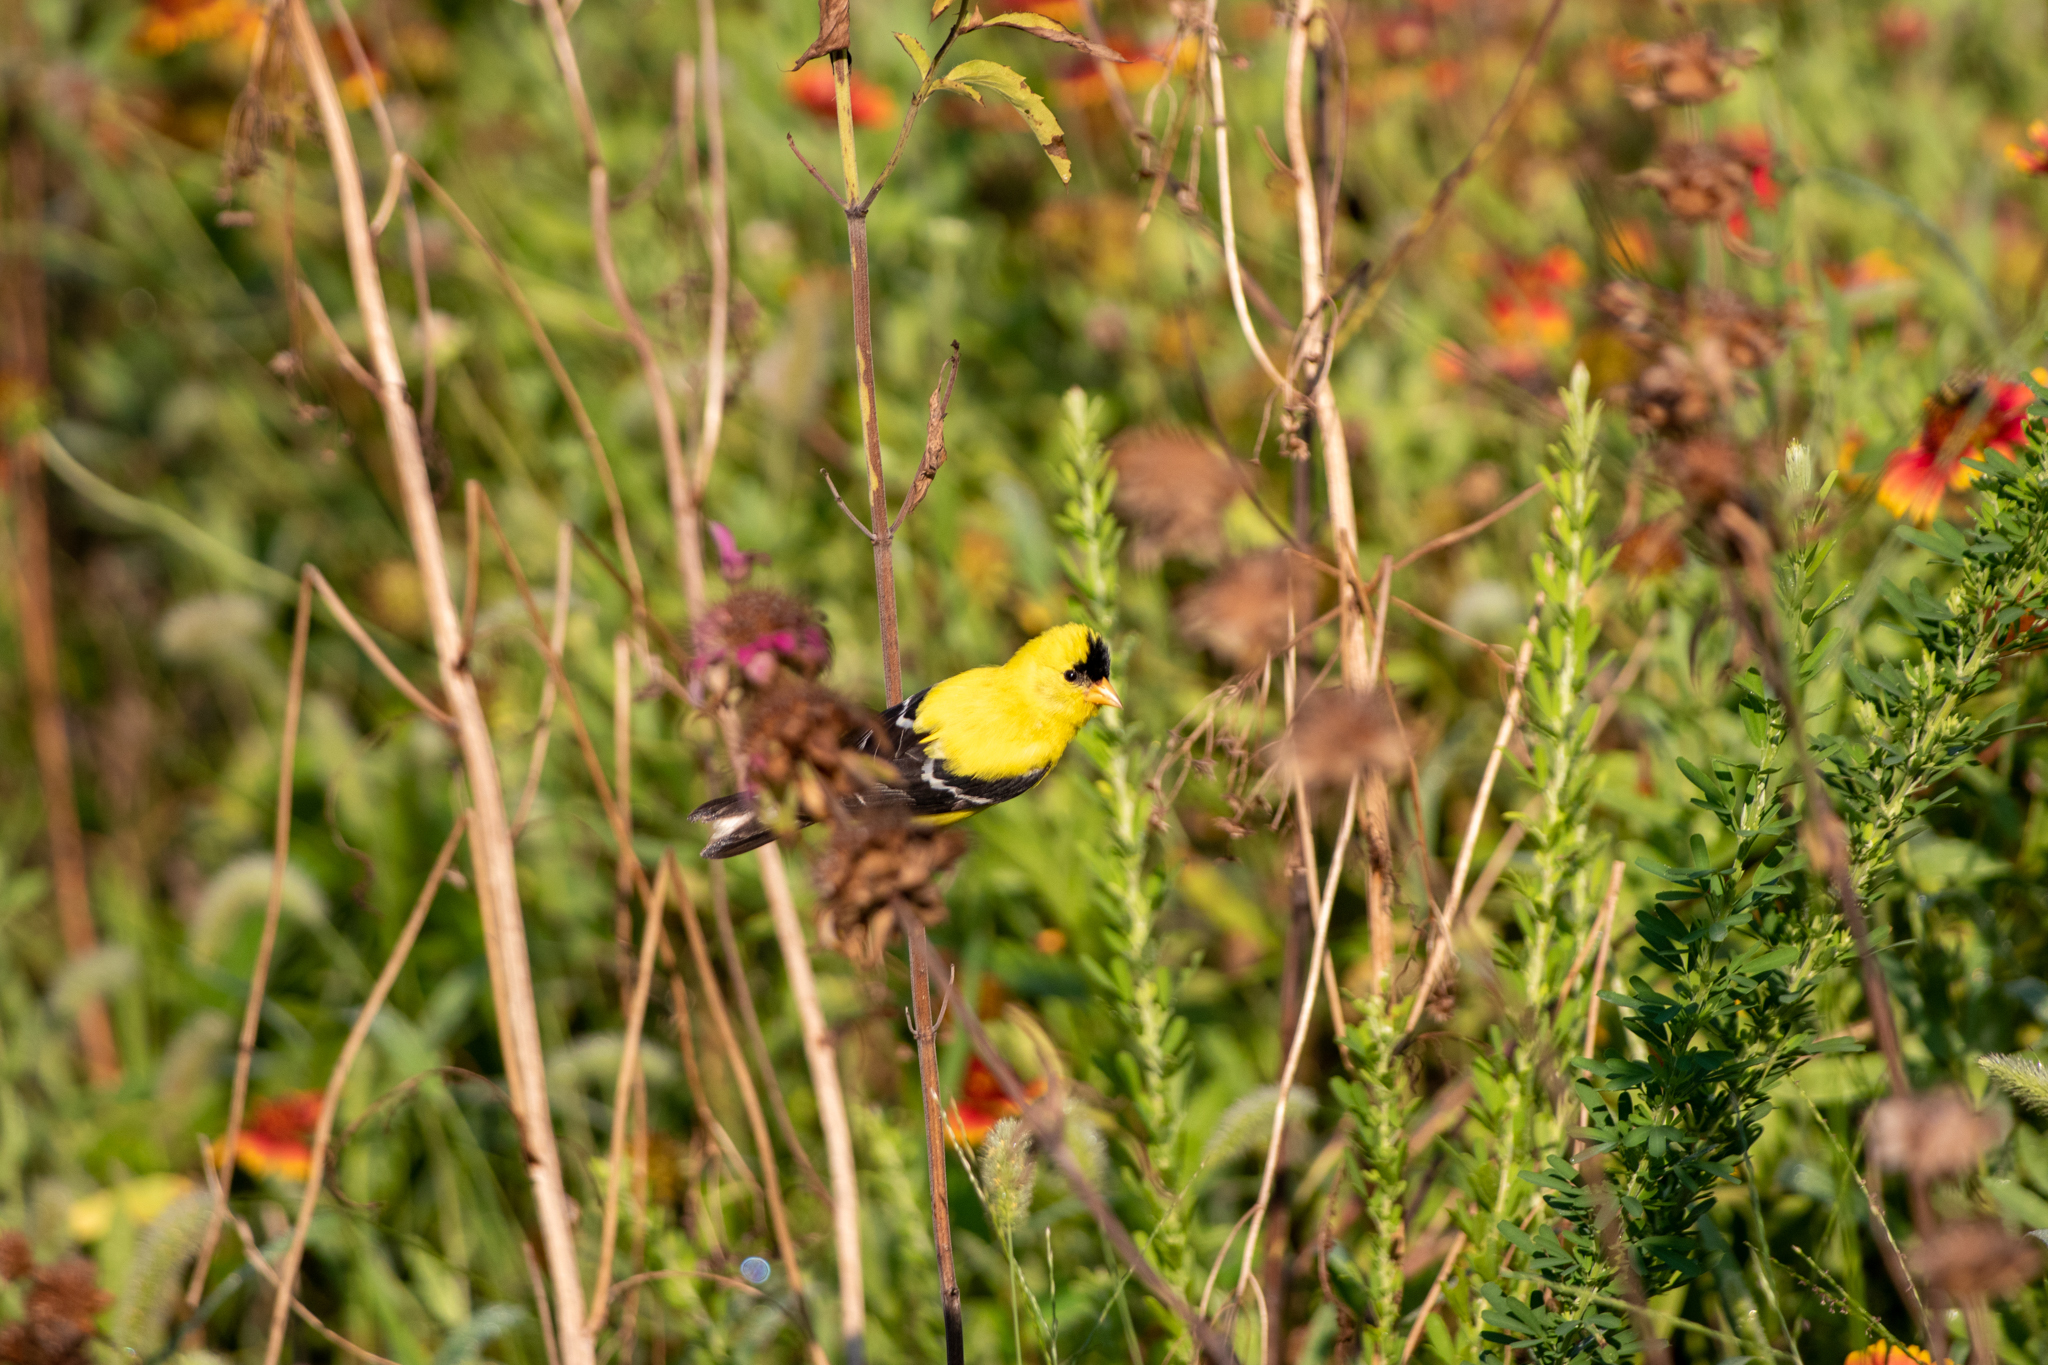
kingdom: Animalia
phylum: Chordata
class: Aves
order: Passeriformes
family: Fringillidae
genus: Spinus
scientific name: Spinus tristis
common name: American goldfinch
